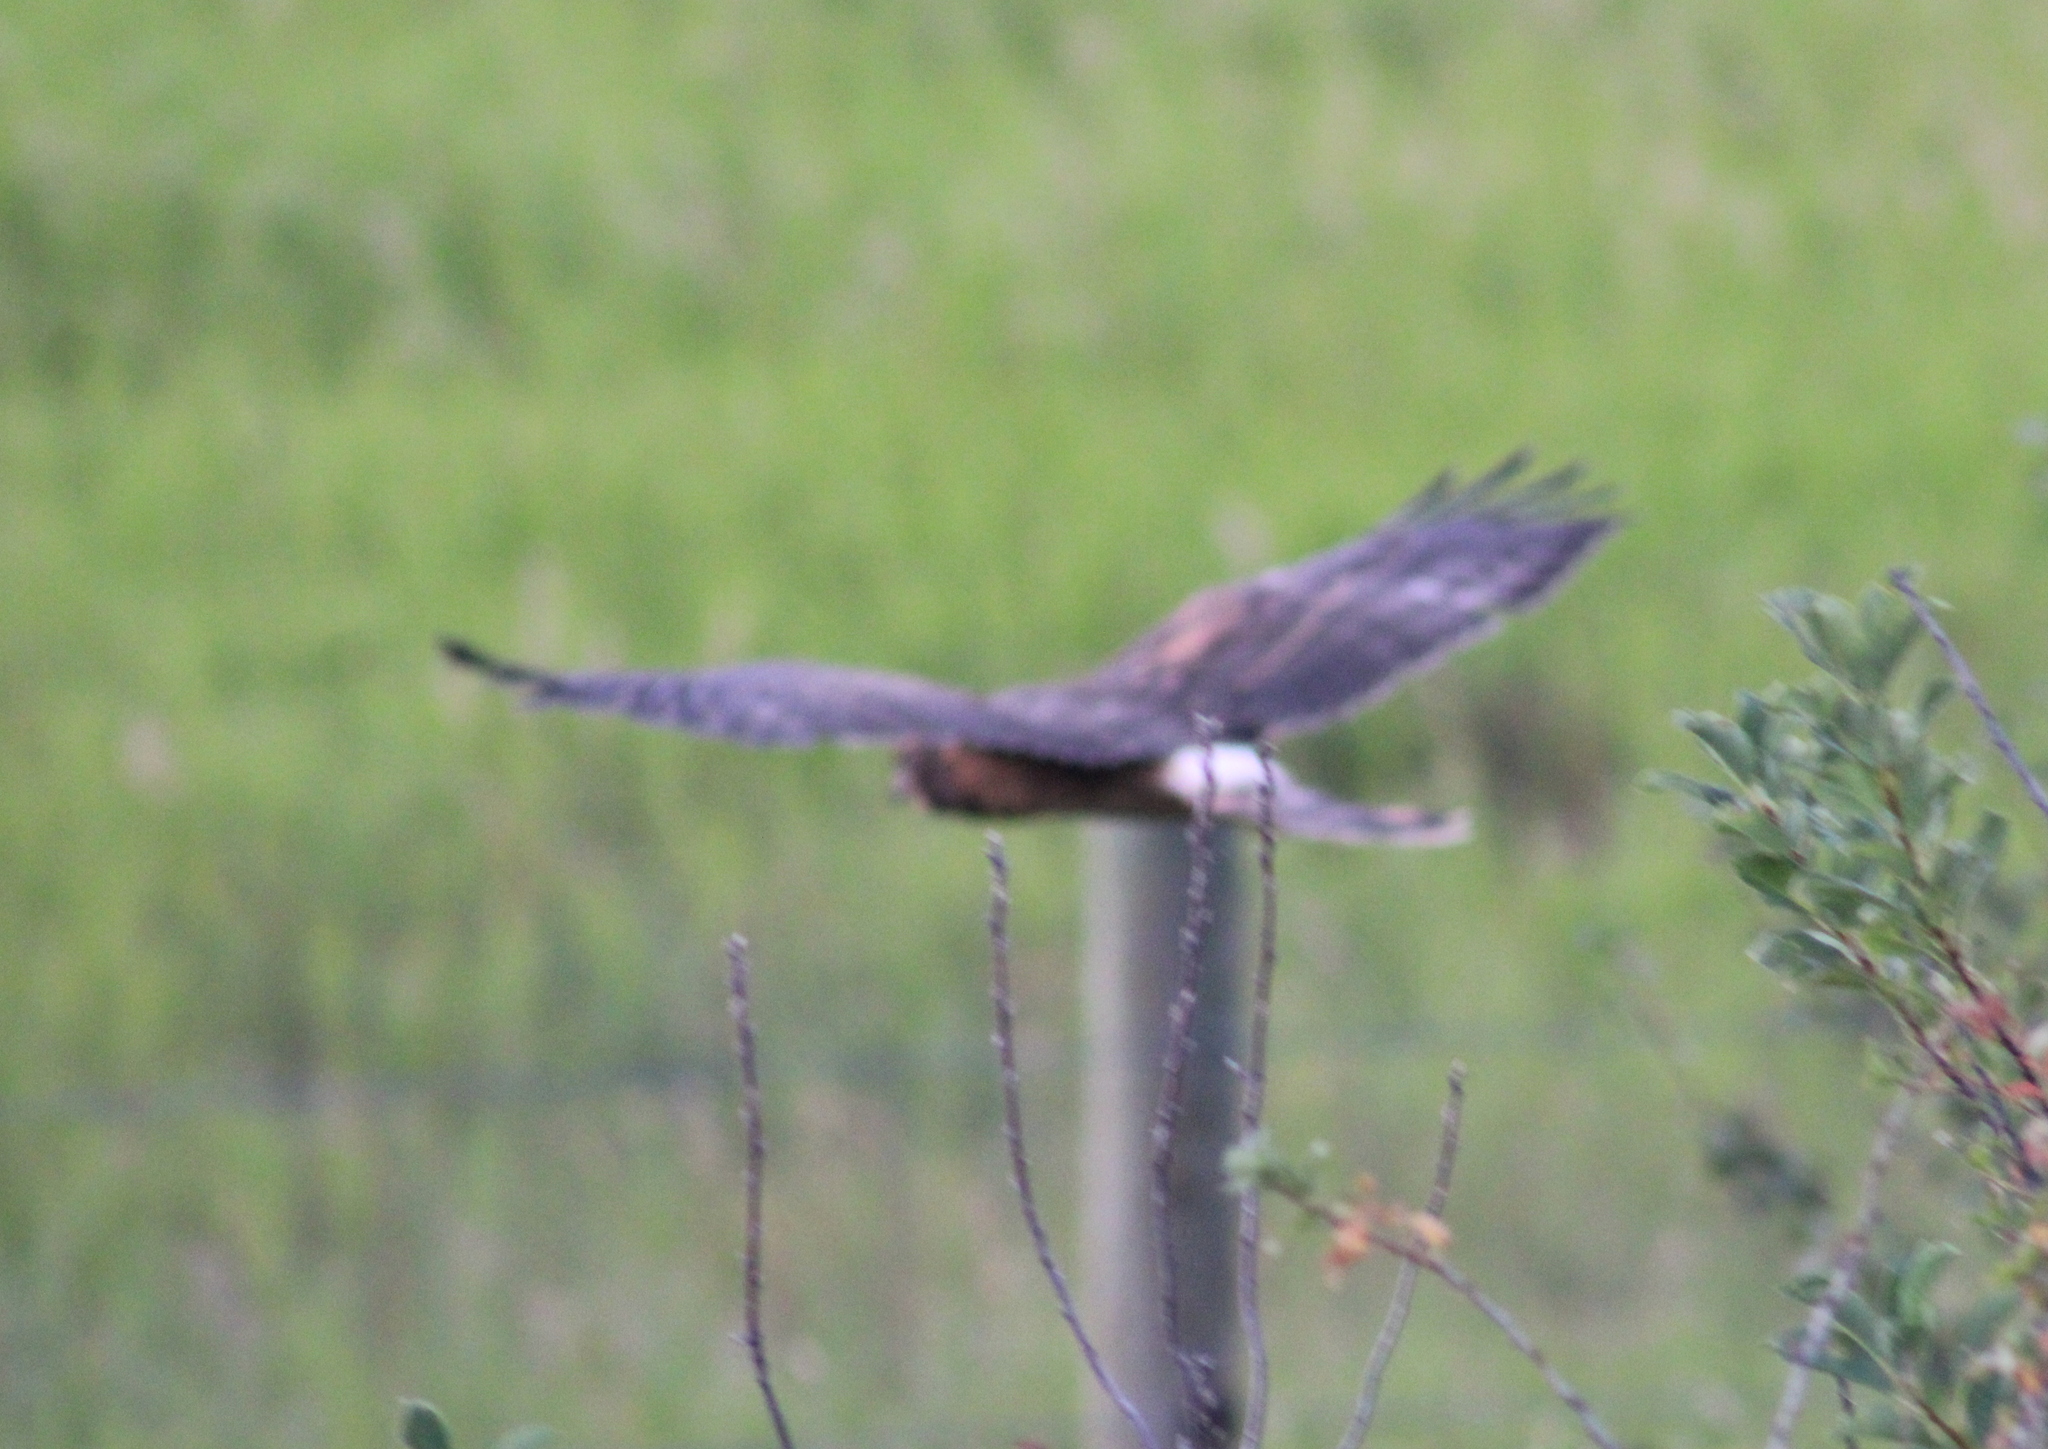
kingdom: Animalia
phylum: Chordata
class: Aves
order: Accipitriformes
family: Accipitridae
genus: Circus
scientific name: Circus cyaneus
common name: Hen harrier
